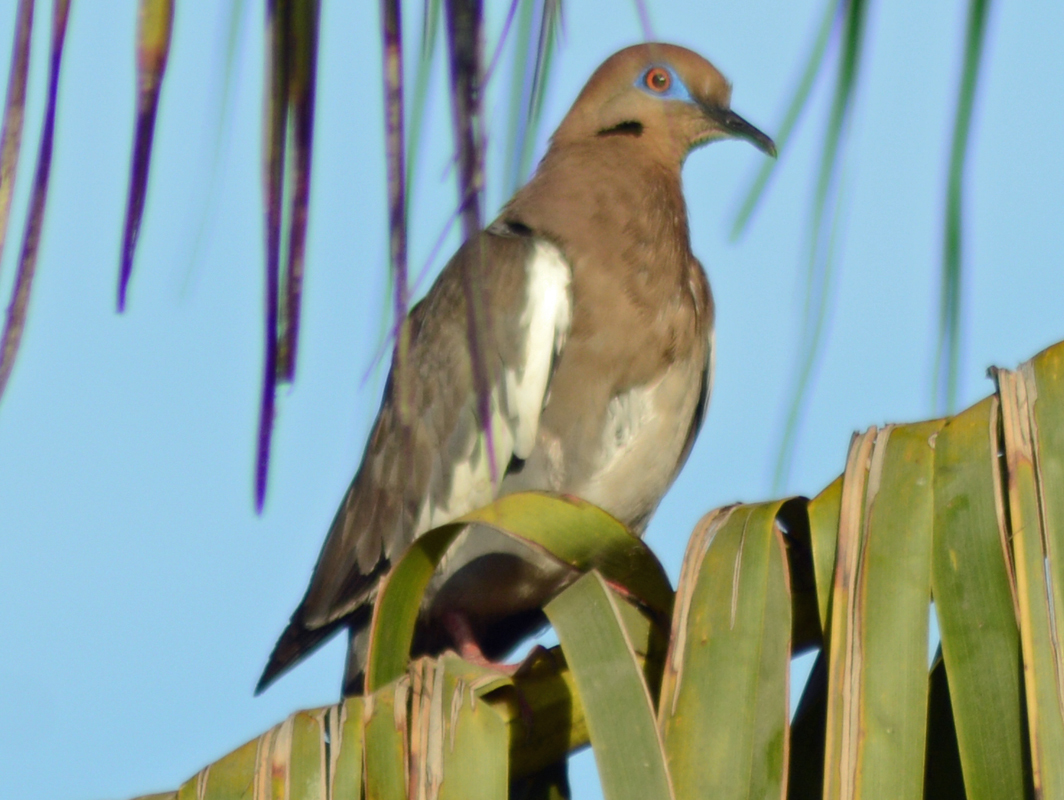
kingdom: Animalia
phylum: Chordata
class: Aves
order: Columbiformes
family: Columbidae
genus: Zenaida
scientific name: Zenaida asiatica
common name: White-winged dove
